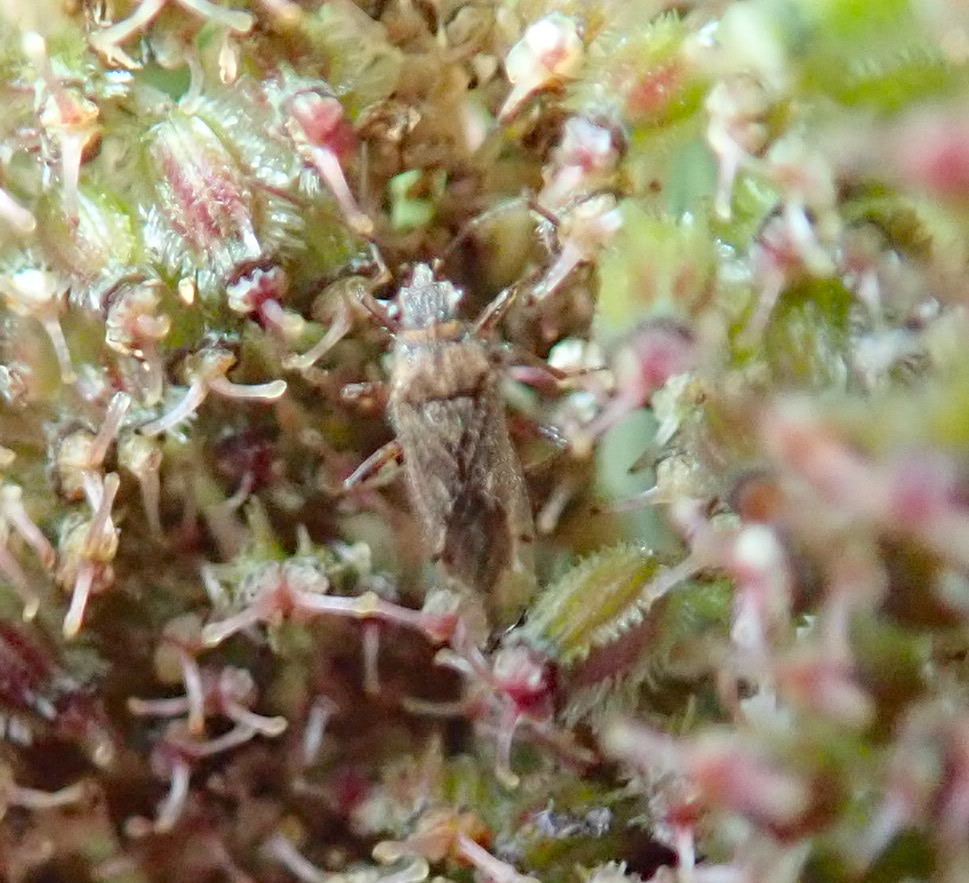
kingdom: Animalia
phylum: Arthropoda
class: Insecta
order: Hemiptera
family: Lygaeidae
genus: Nysius
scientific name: Nysius caledoniae
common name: Lygaeid bug
